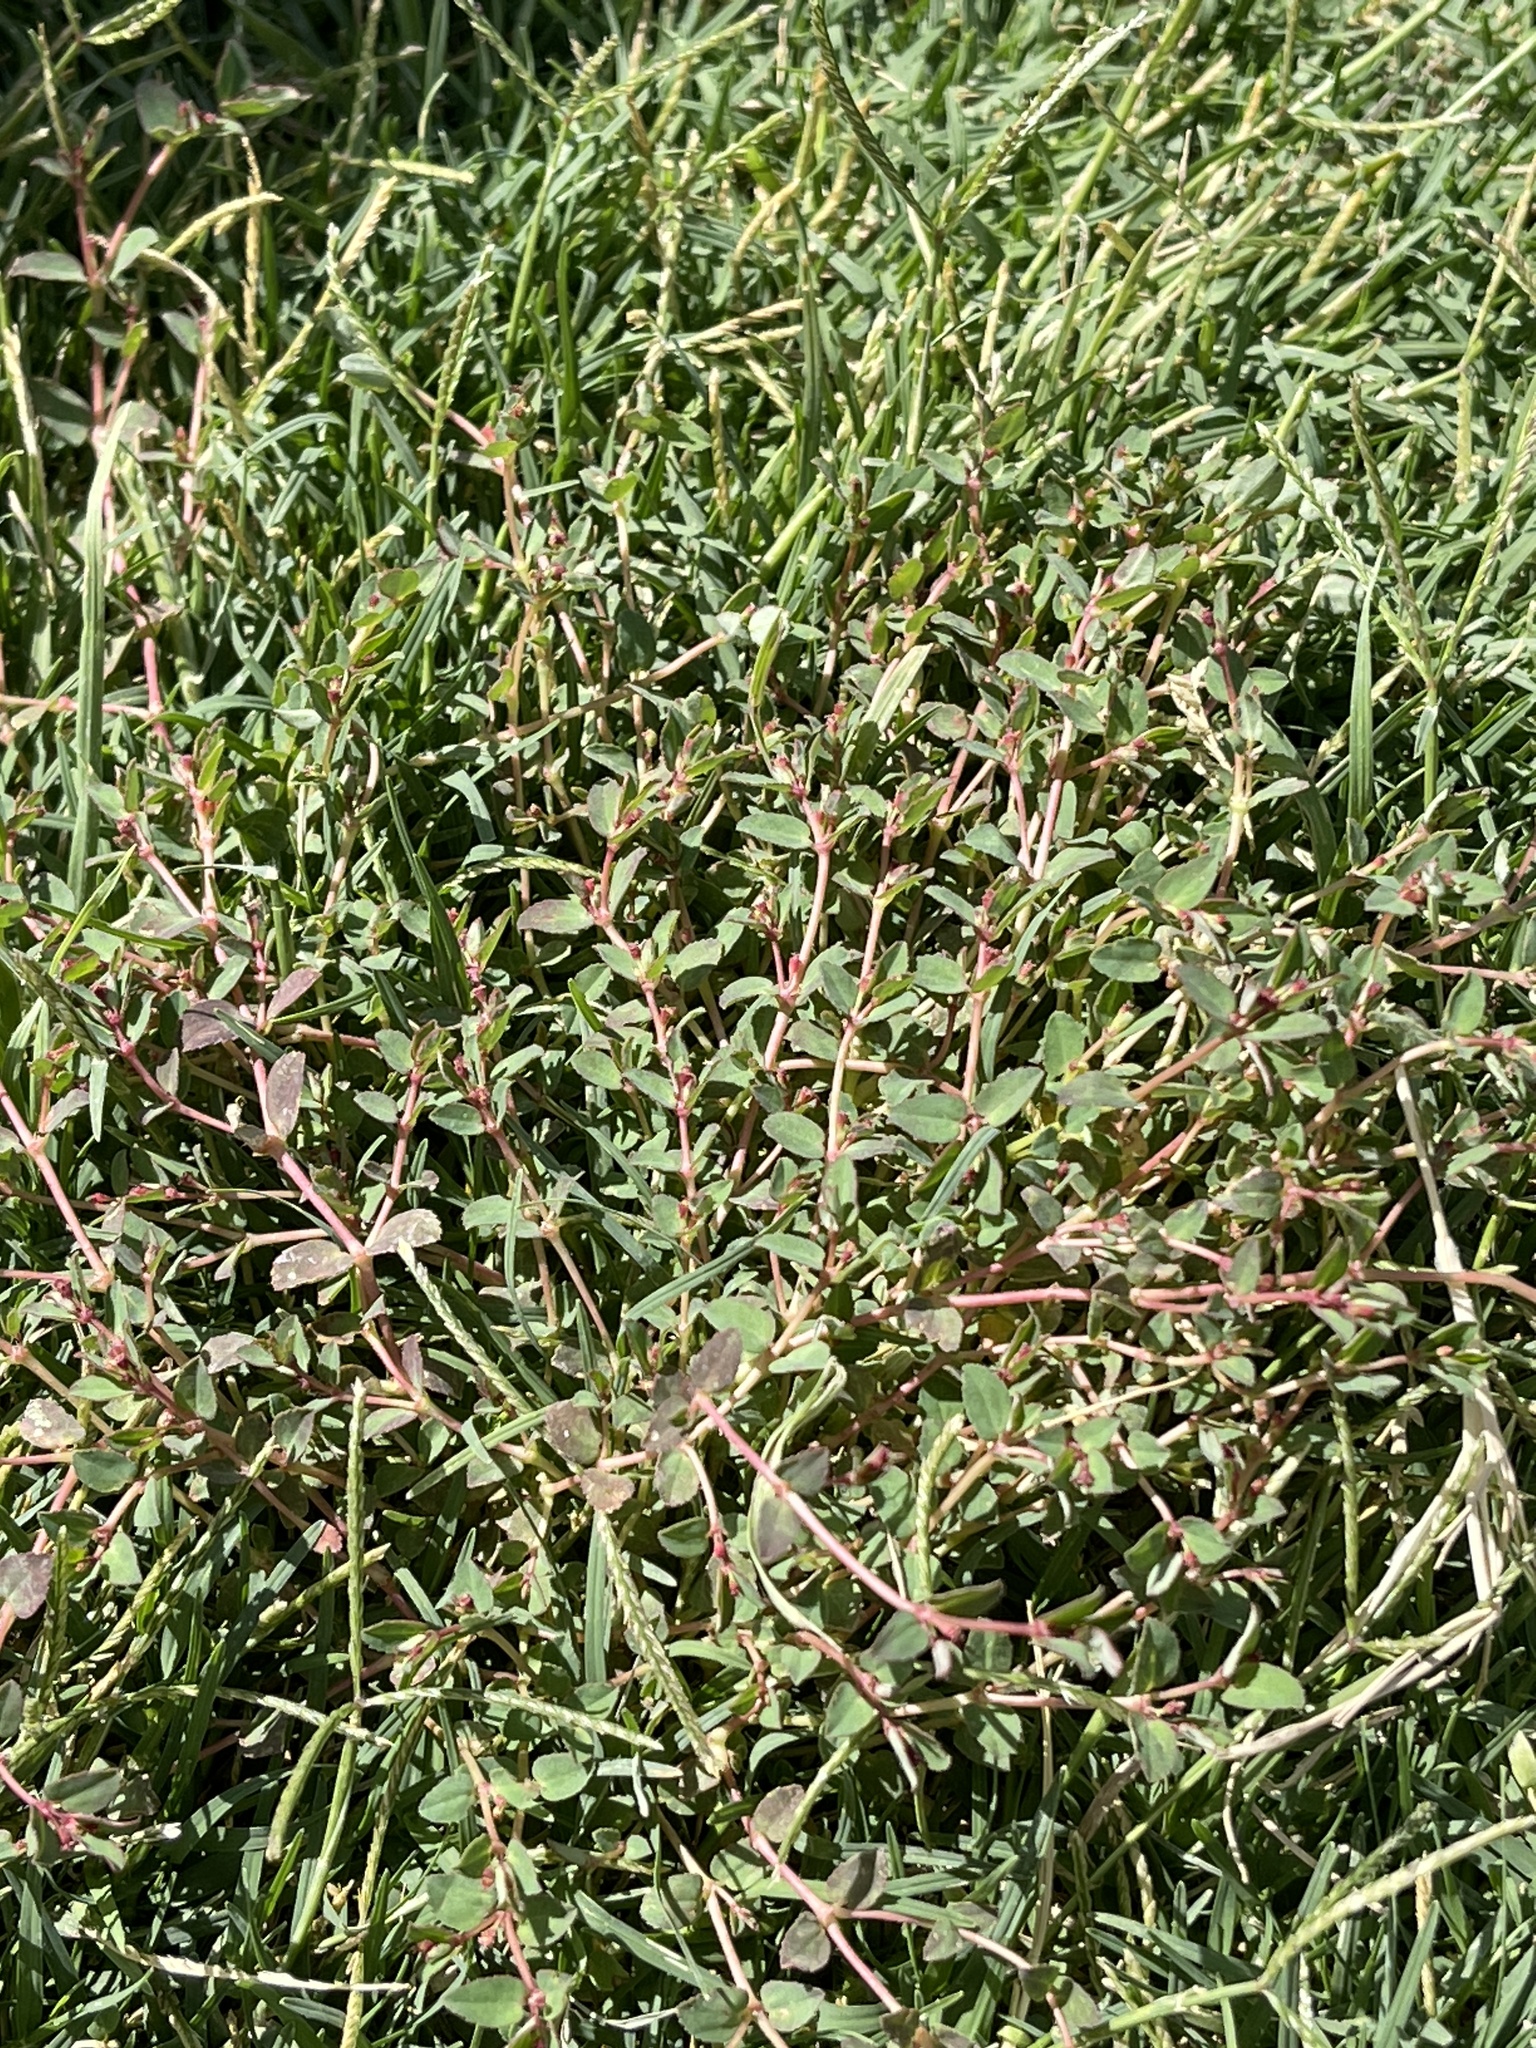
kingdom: Plantae
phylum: Tracheophyta
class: Magnoliopsida
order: Malpighiales
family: Euphorbiaceae
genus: Euphorbia
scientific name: Euphorbia vermiculata
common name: Hairy spurge
